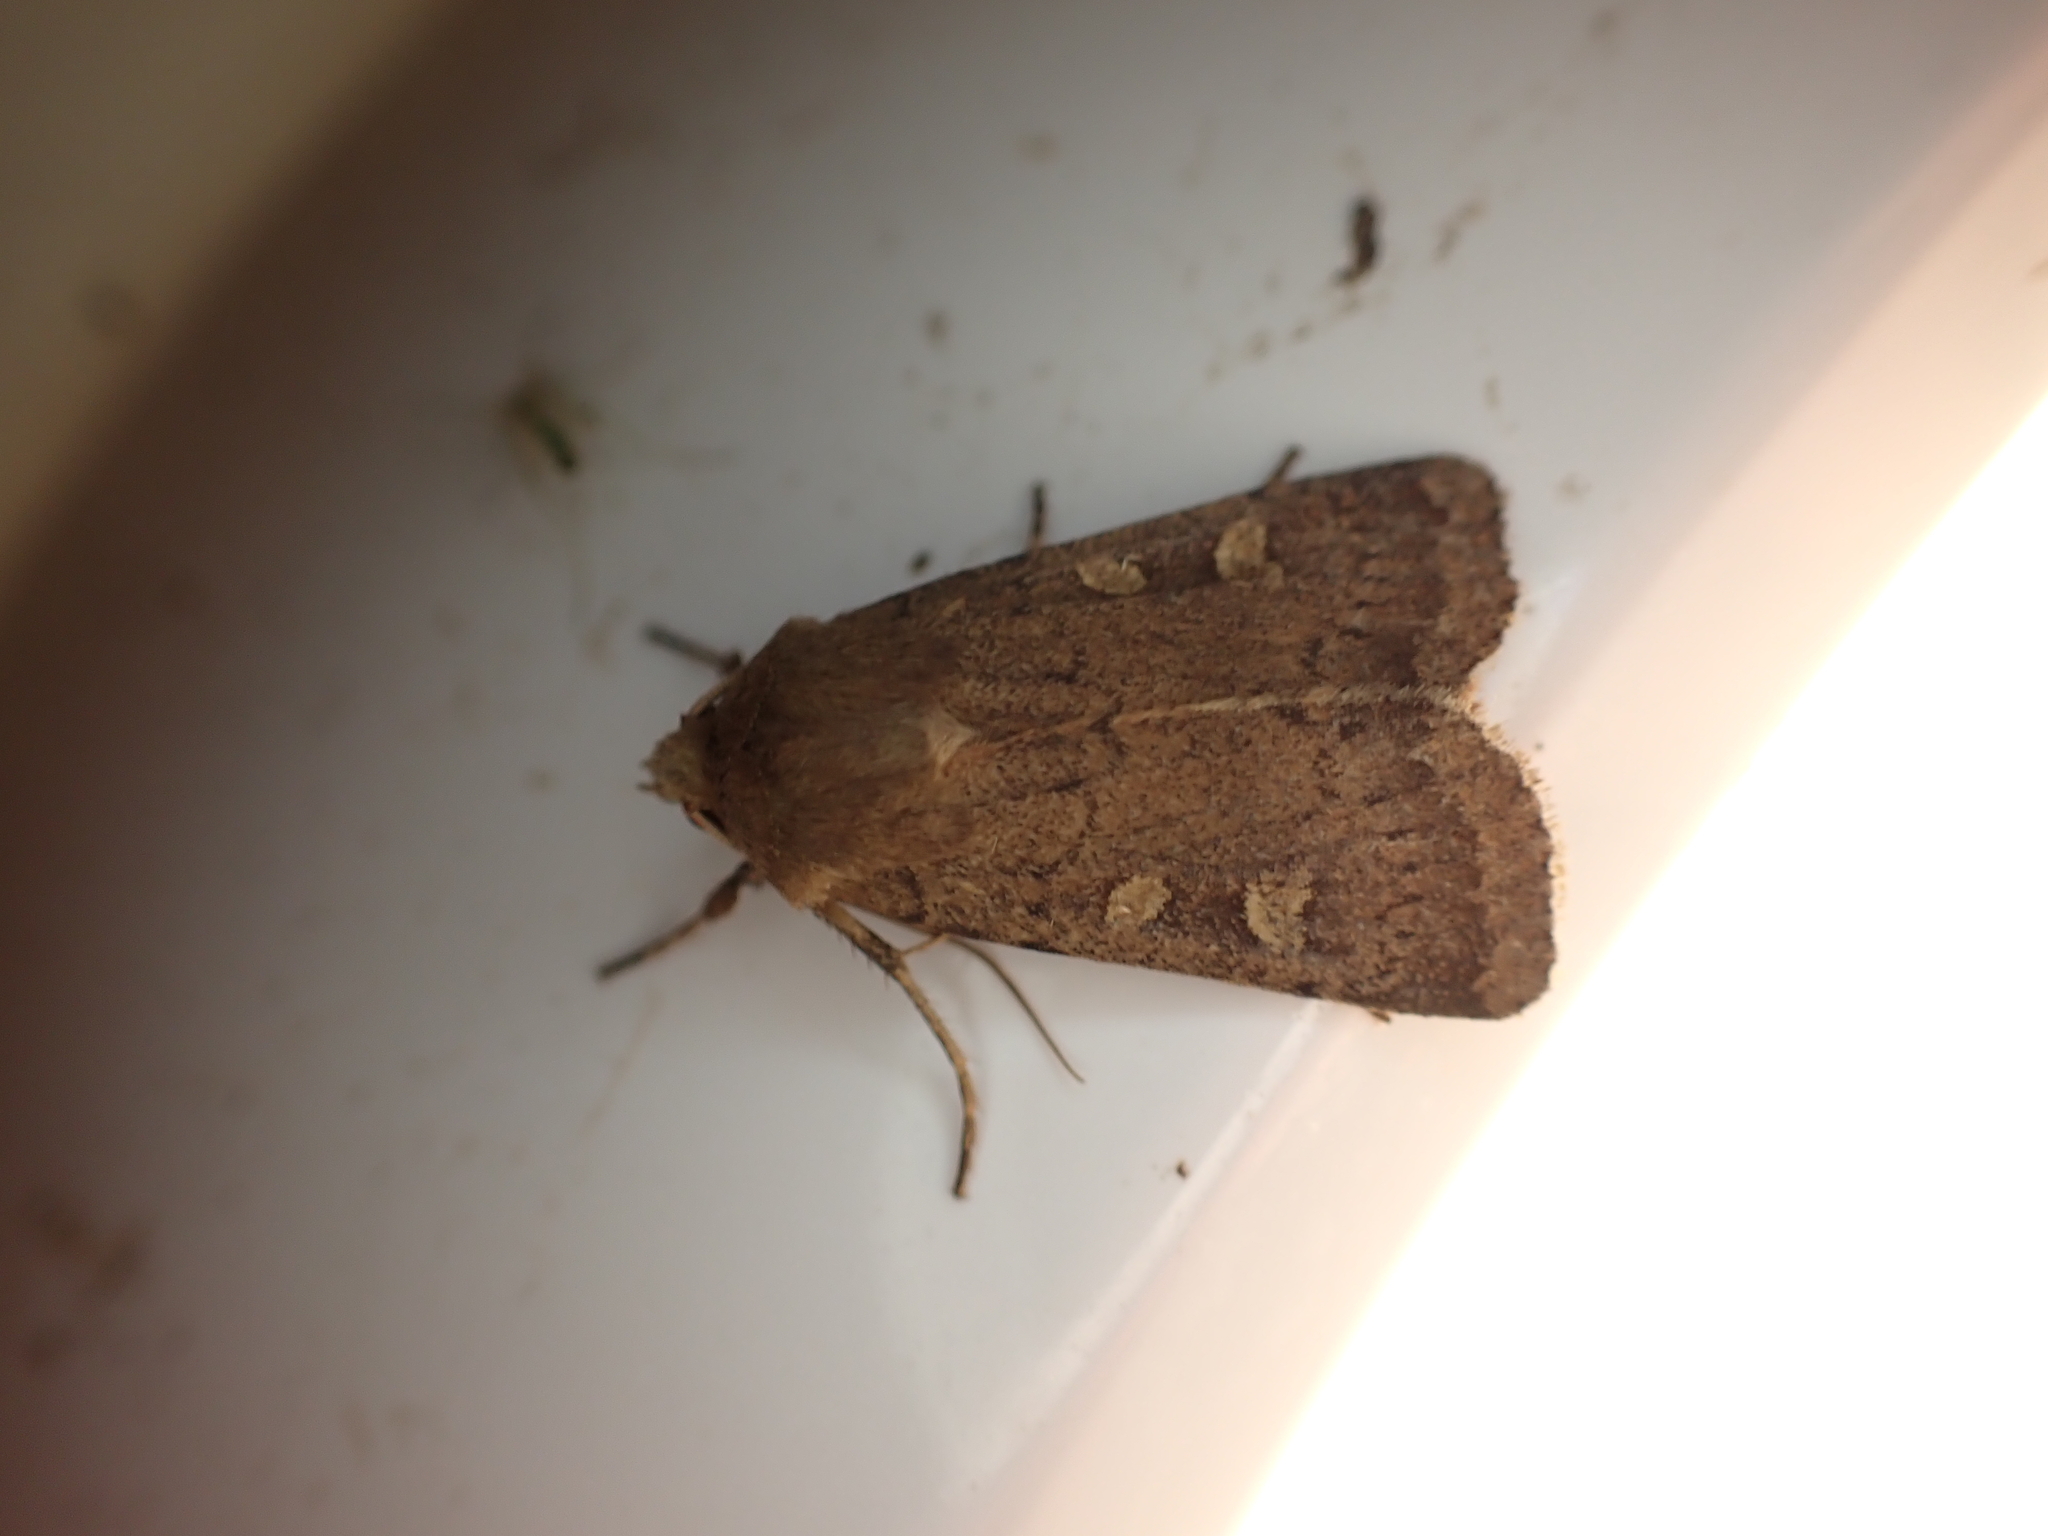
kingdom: Animalia
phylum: Arthropoda
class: Insecta
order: Lepidoptera
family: Noctuidae
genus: Xestia
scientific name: Xestia xanthographa
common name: Square-spot rustic
